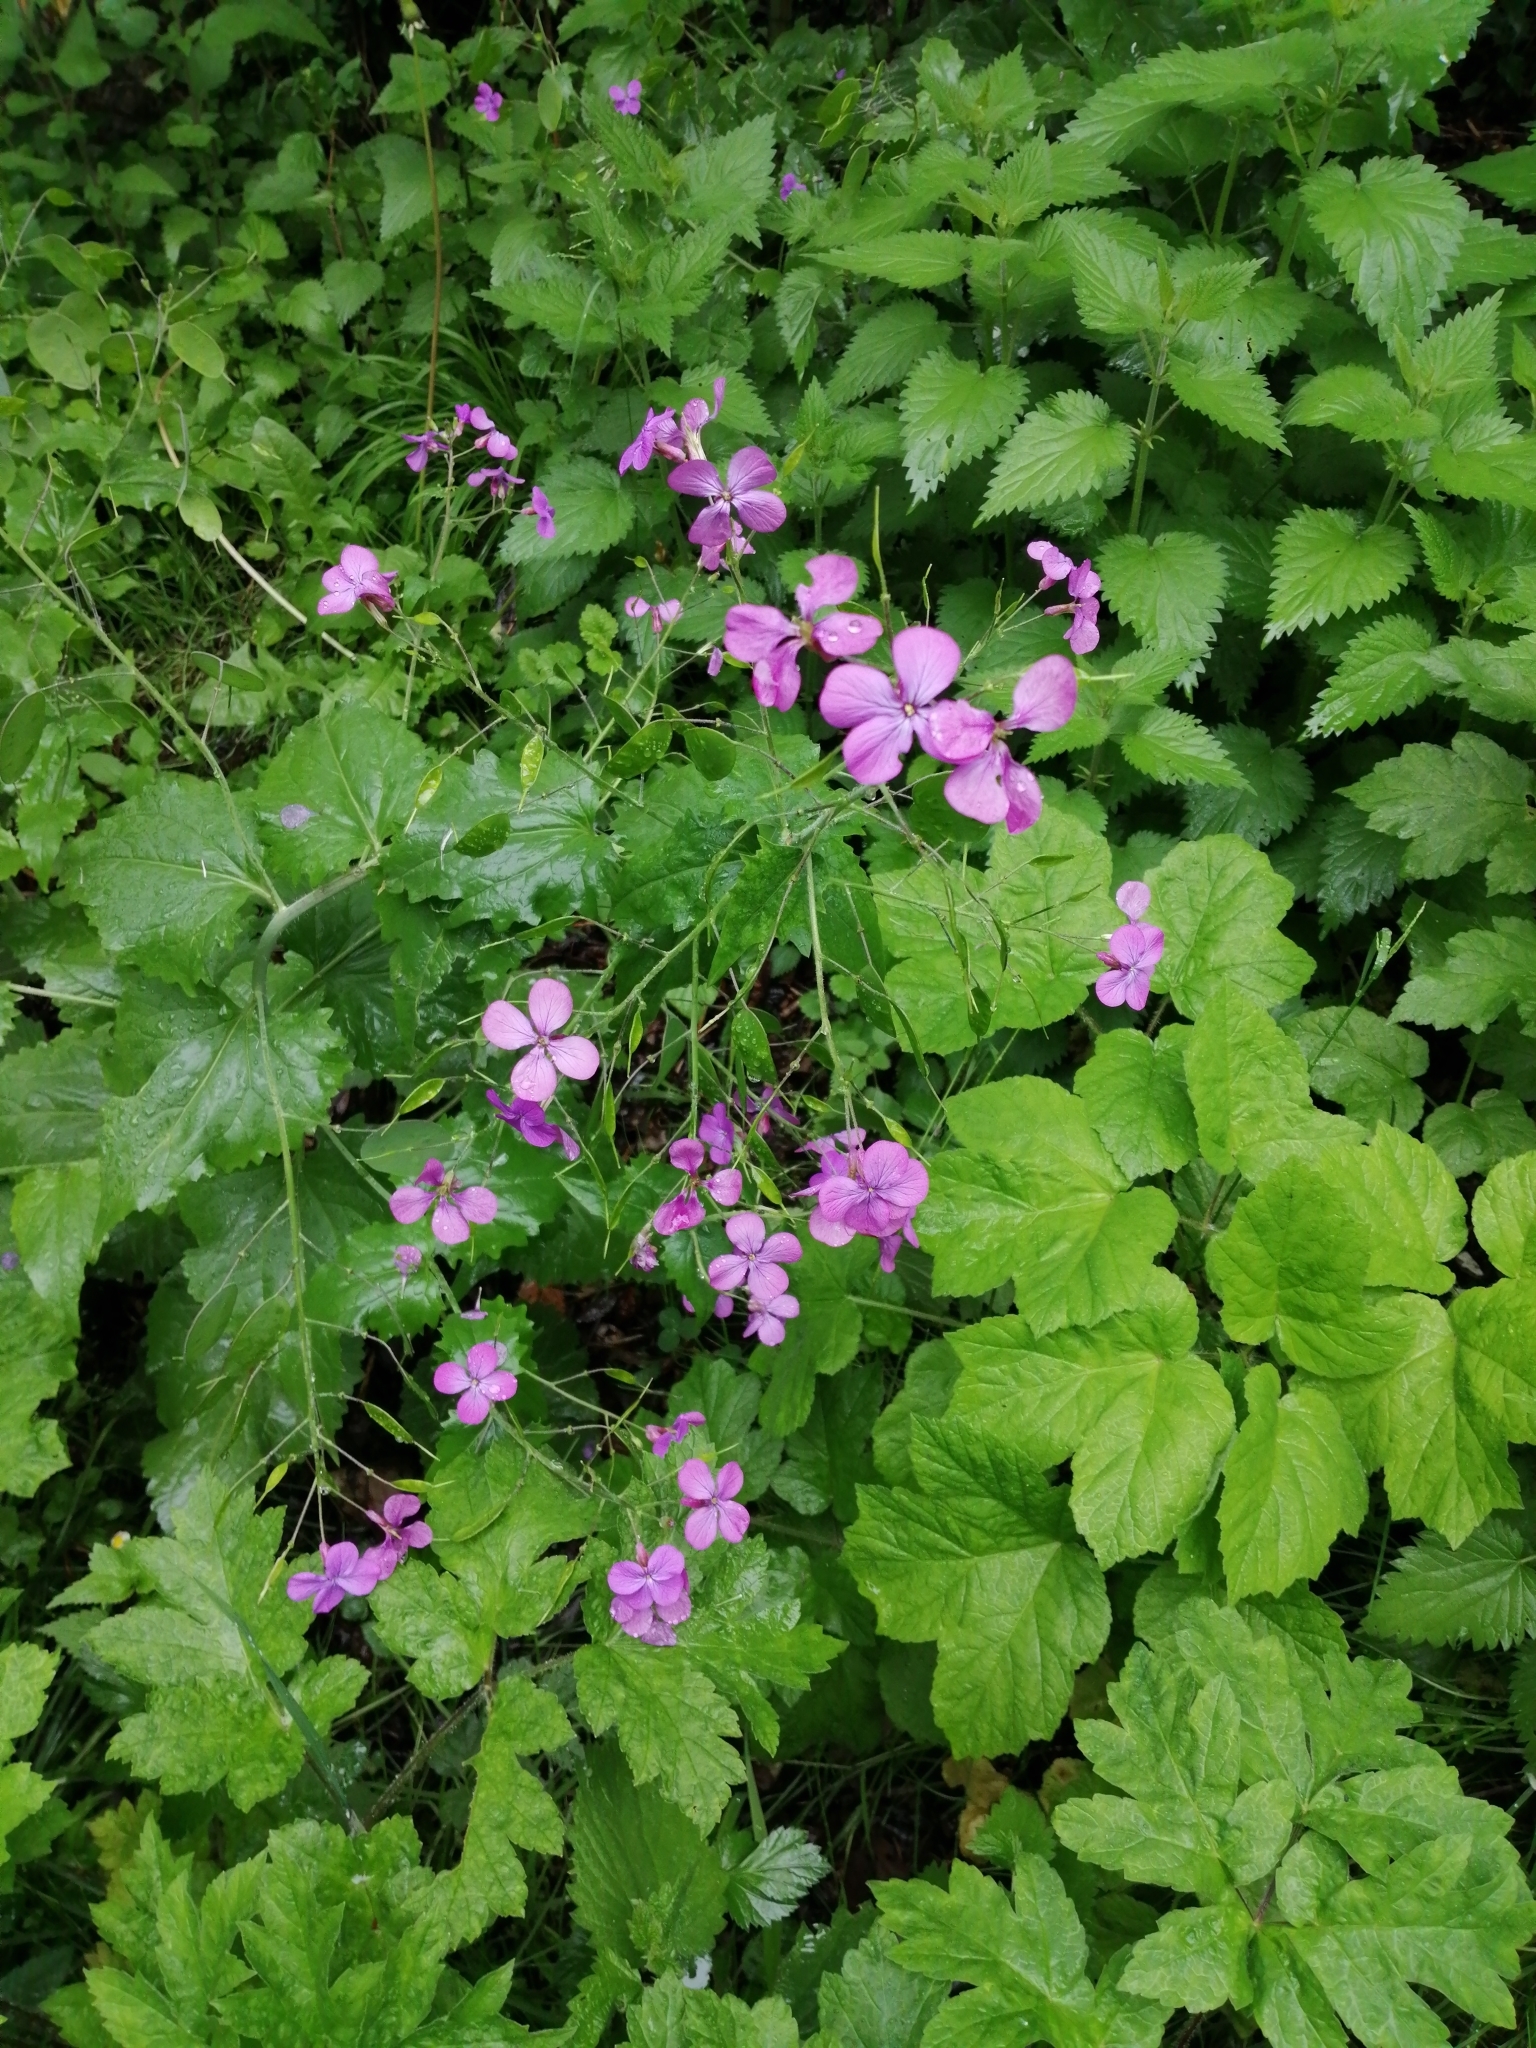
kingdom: Plantae
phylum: Tracheophyta
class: Magnoliopsida
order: Brassicales
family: Brassicaceae
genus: Lunaria
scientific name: Lunaria annua
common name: Honesty
